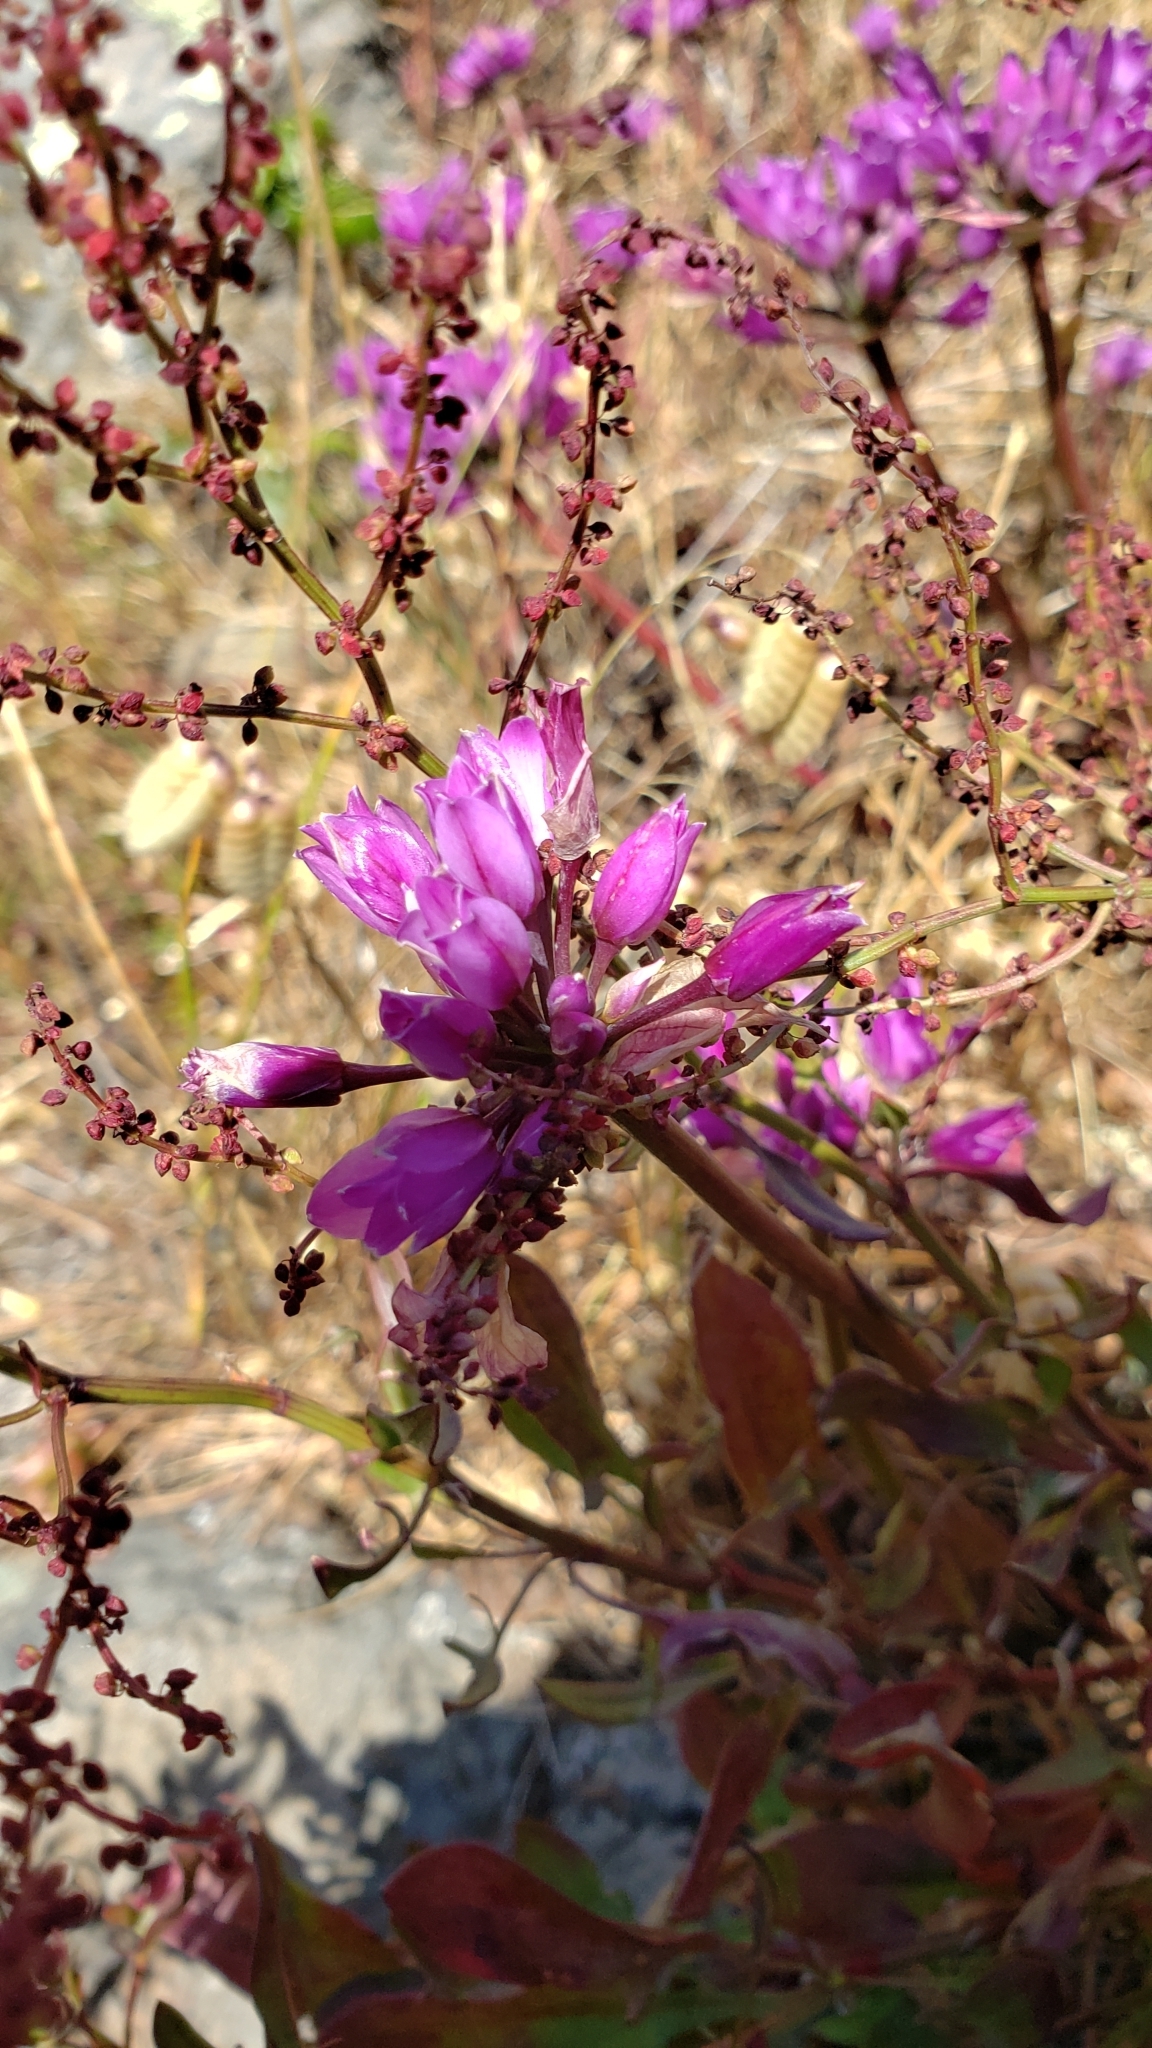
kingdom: Plantae
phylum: Tracheophyta
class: Liliopsida
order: Asparagales
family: Amaryllidaceae
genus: Allium
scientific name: Allium dichlamydeum
